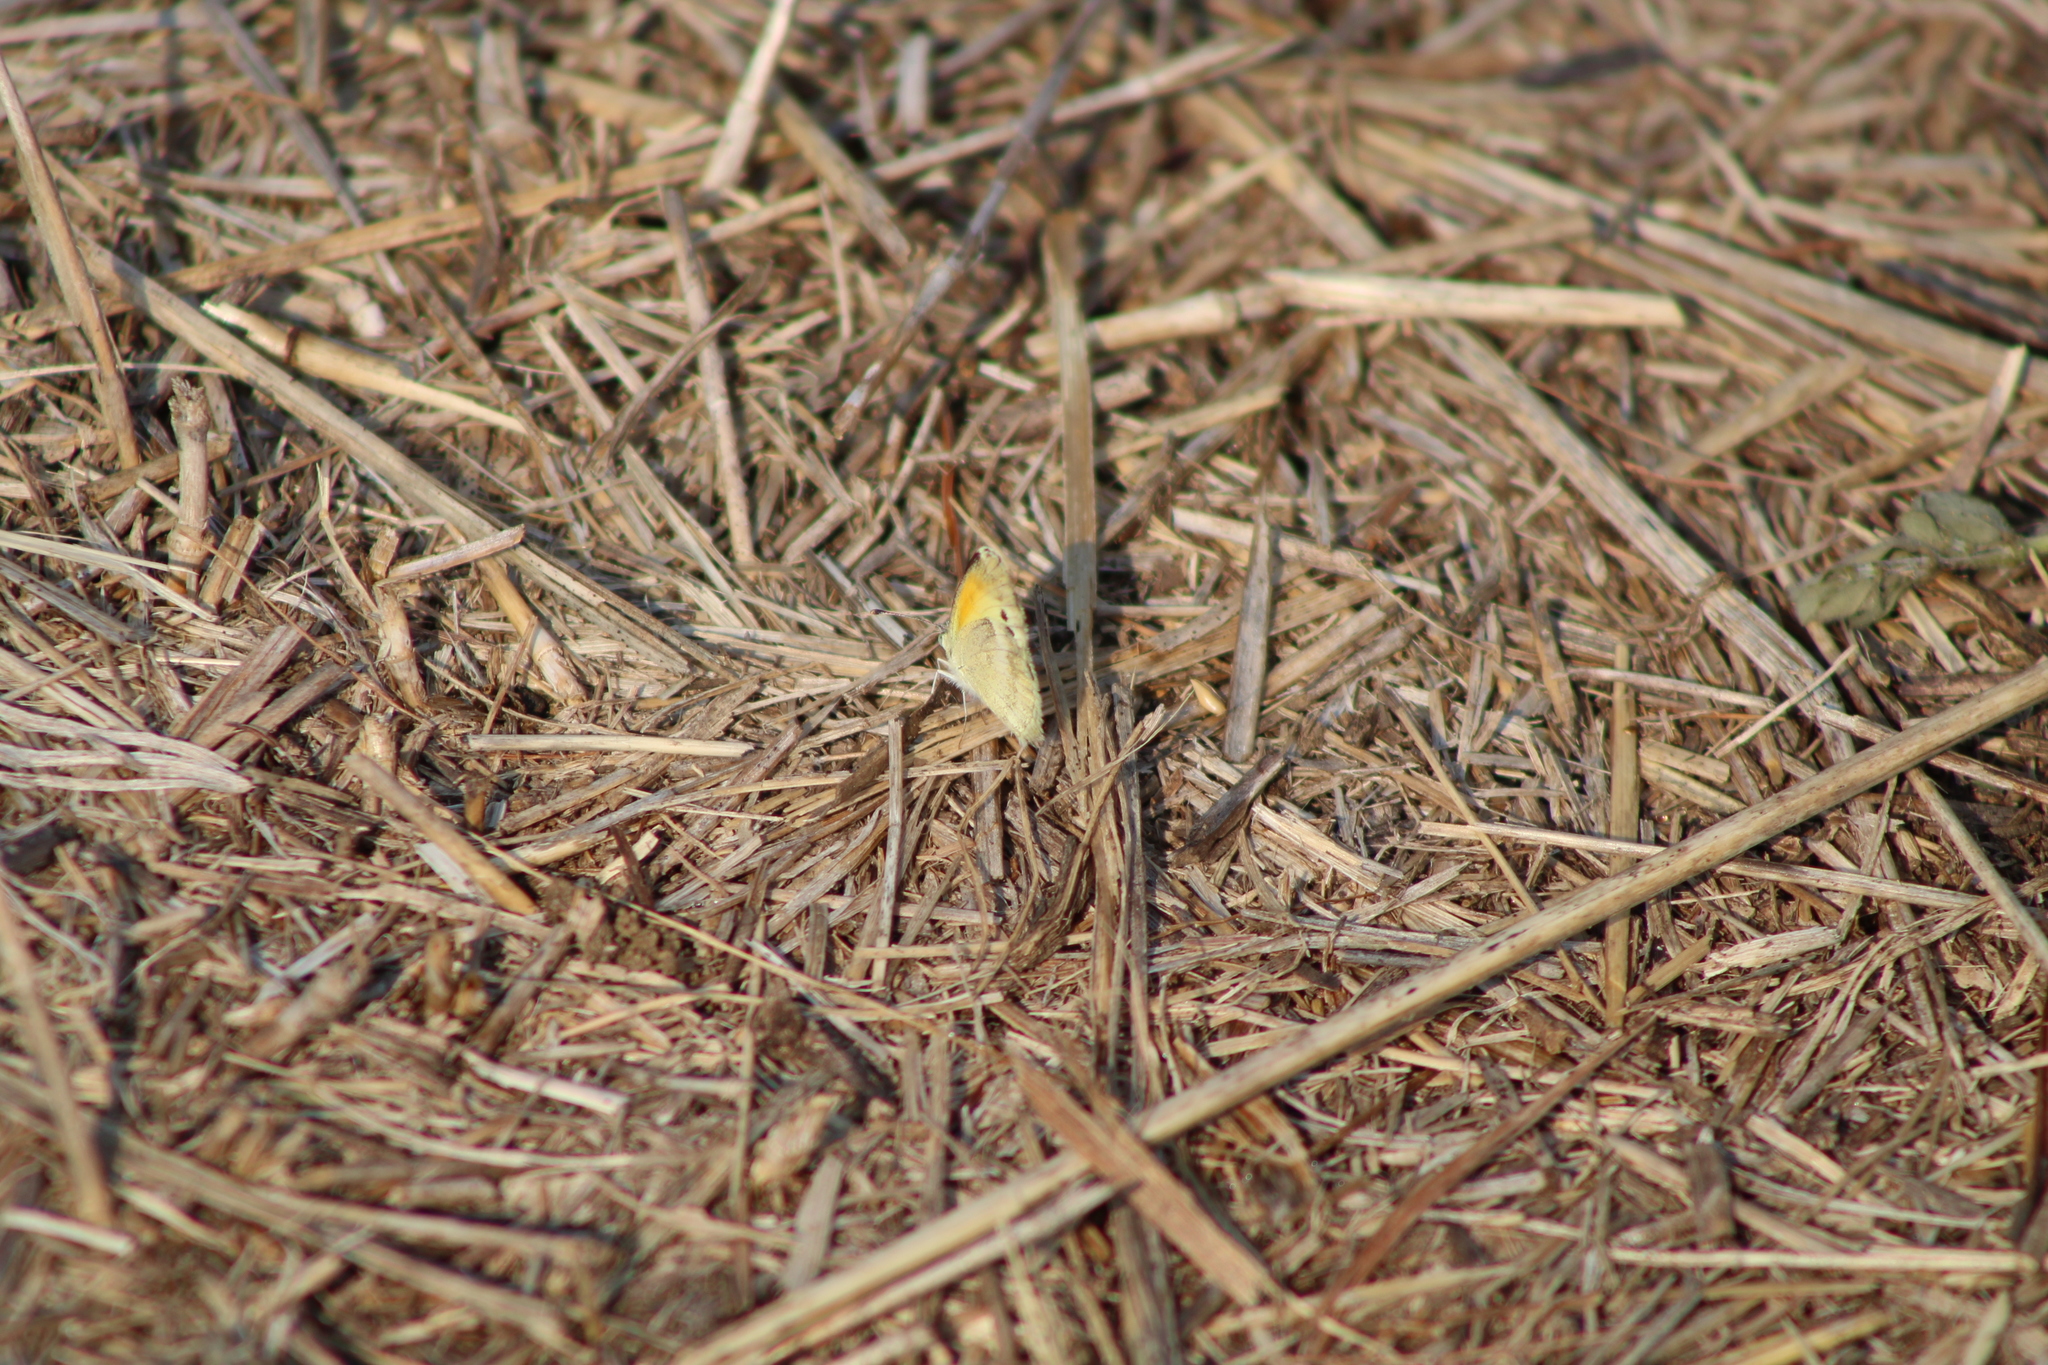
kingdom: Animalia
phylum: Arthropoda
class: Insecta
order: Lepidoptera
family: Pieridae
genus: Nathalis
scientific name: Nathalis iole
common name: Dainty sulphur
